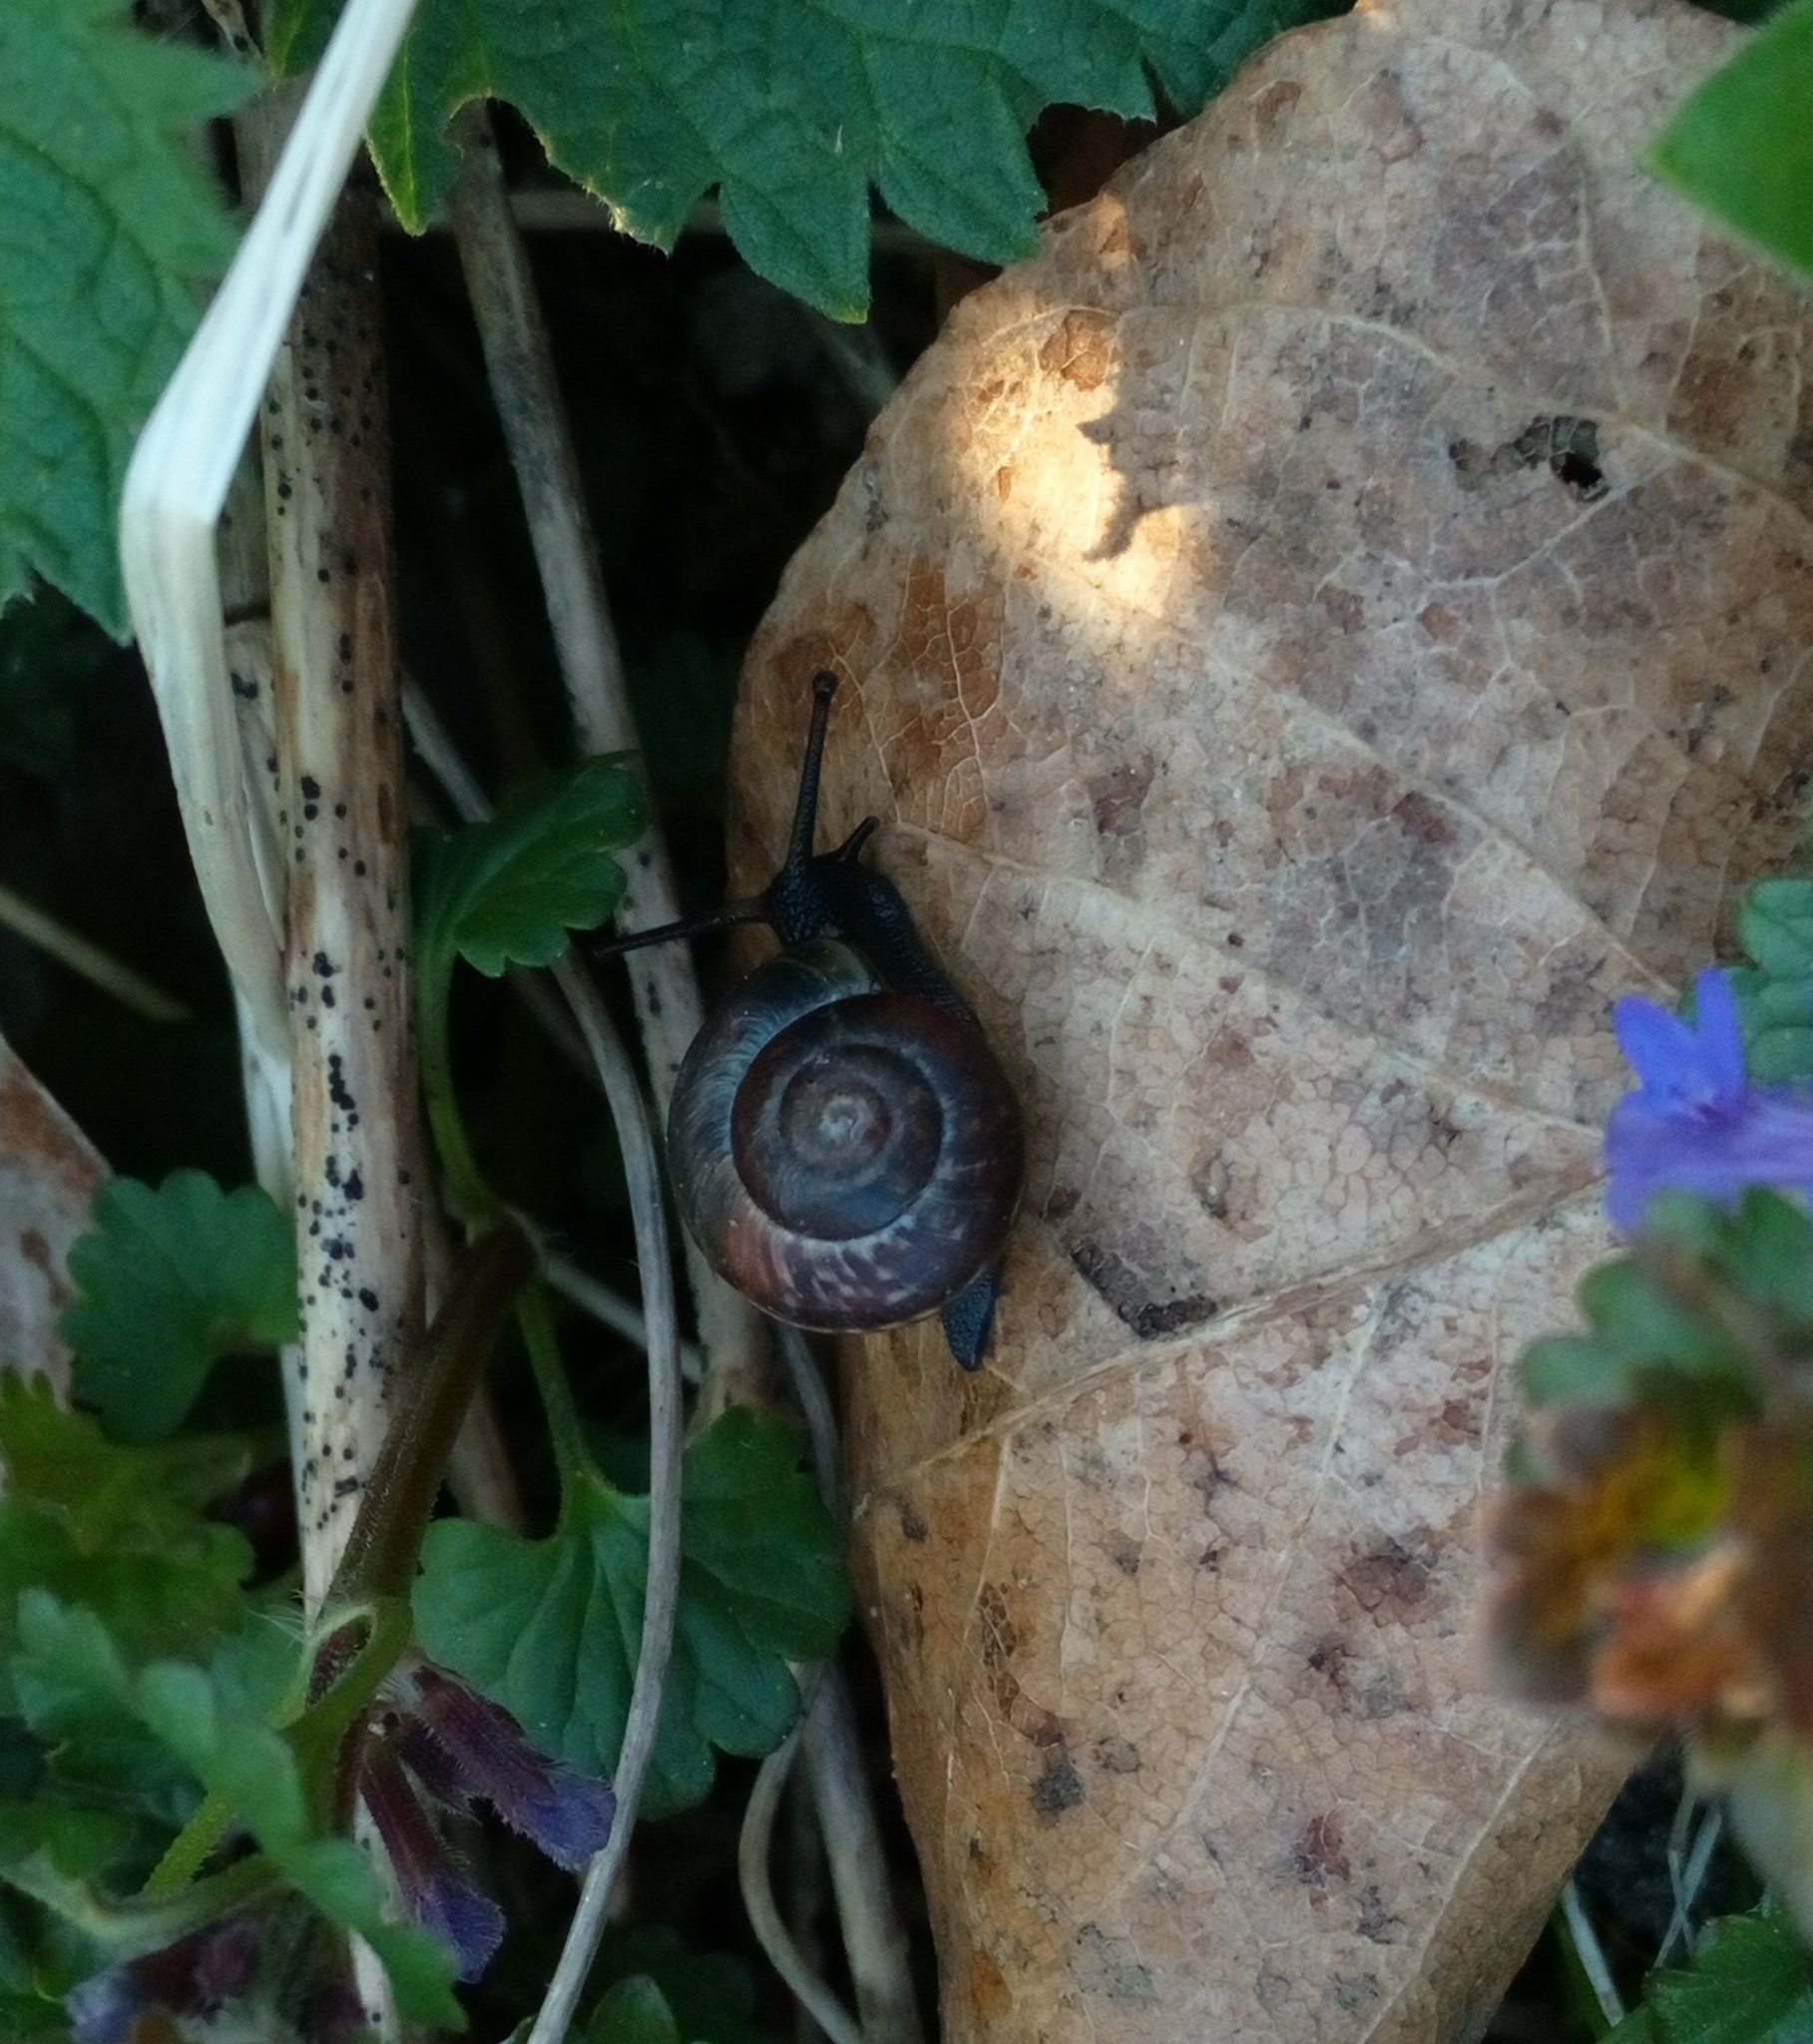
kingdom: Animalia
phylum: Mollusca
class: Gastropoda
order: Stylommatophora
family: Helicidae
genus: Arianta
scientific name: Arianta arbustorum
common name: Copse snail
